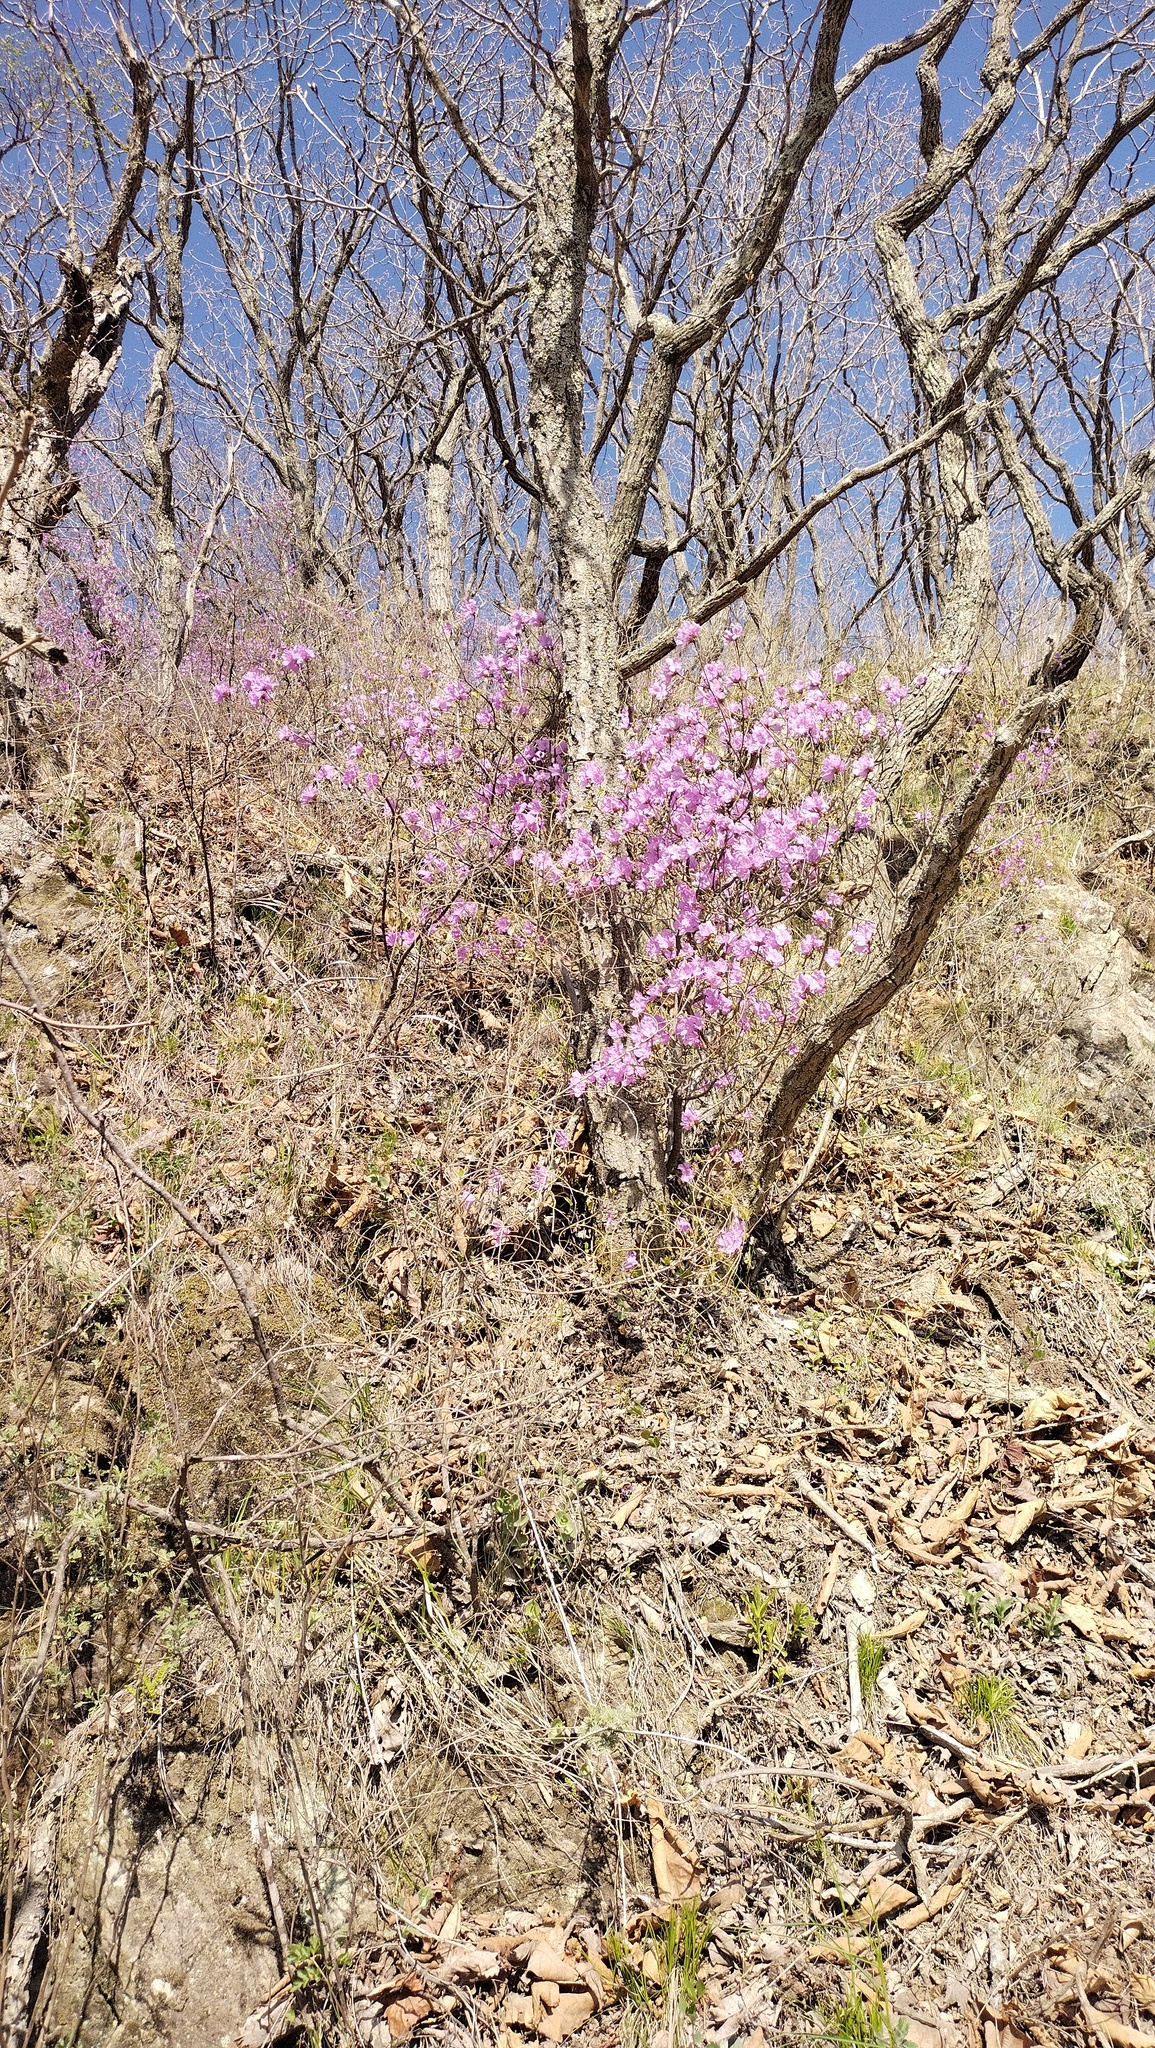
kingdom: Plantae
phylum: Tracheophyta
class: Magnoliopsida
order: Ericales
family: Ericaceae
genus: Rhododendron
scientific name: Rhododendron mucronulatum
